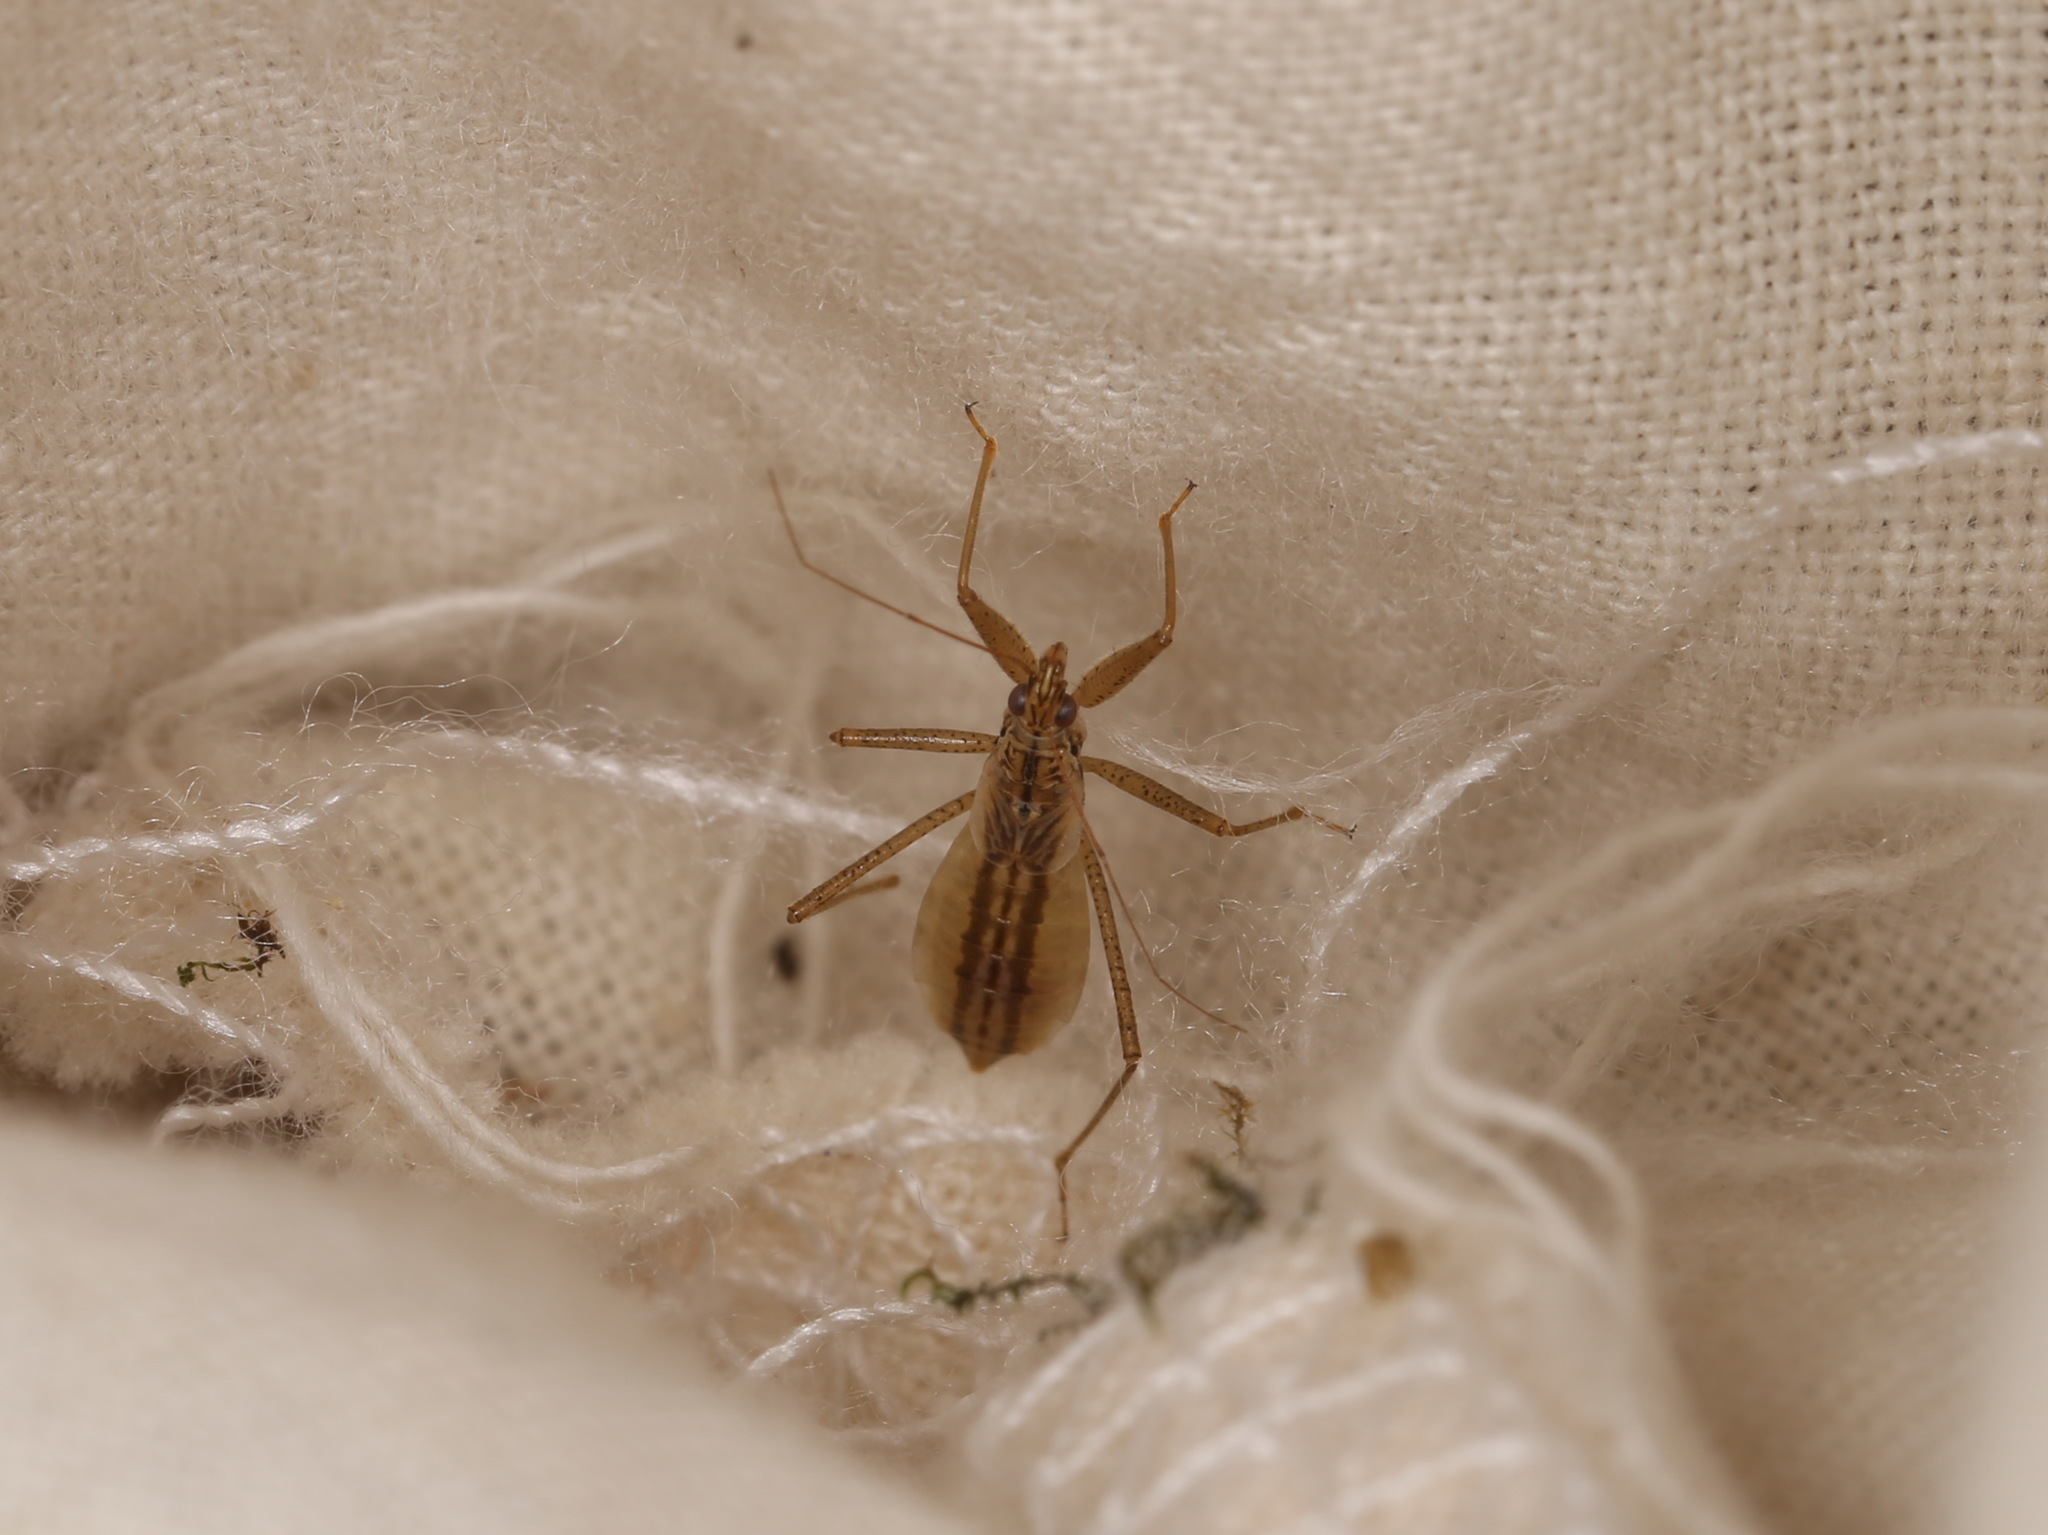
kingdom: Animalia
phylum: Arthropoda
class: Insecta
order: Hemiptera
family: Nabidae
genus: Nabis
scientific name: Nabis limbatus
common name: Marsh damselbug
